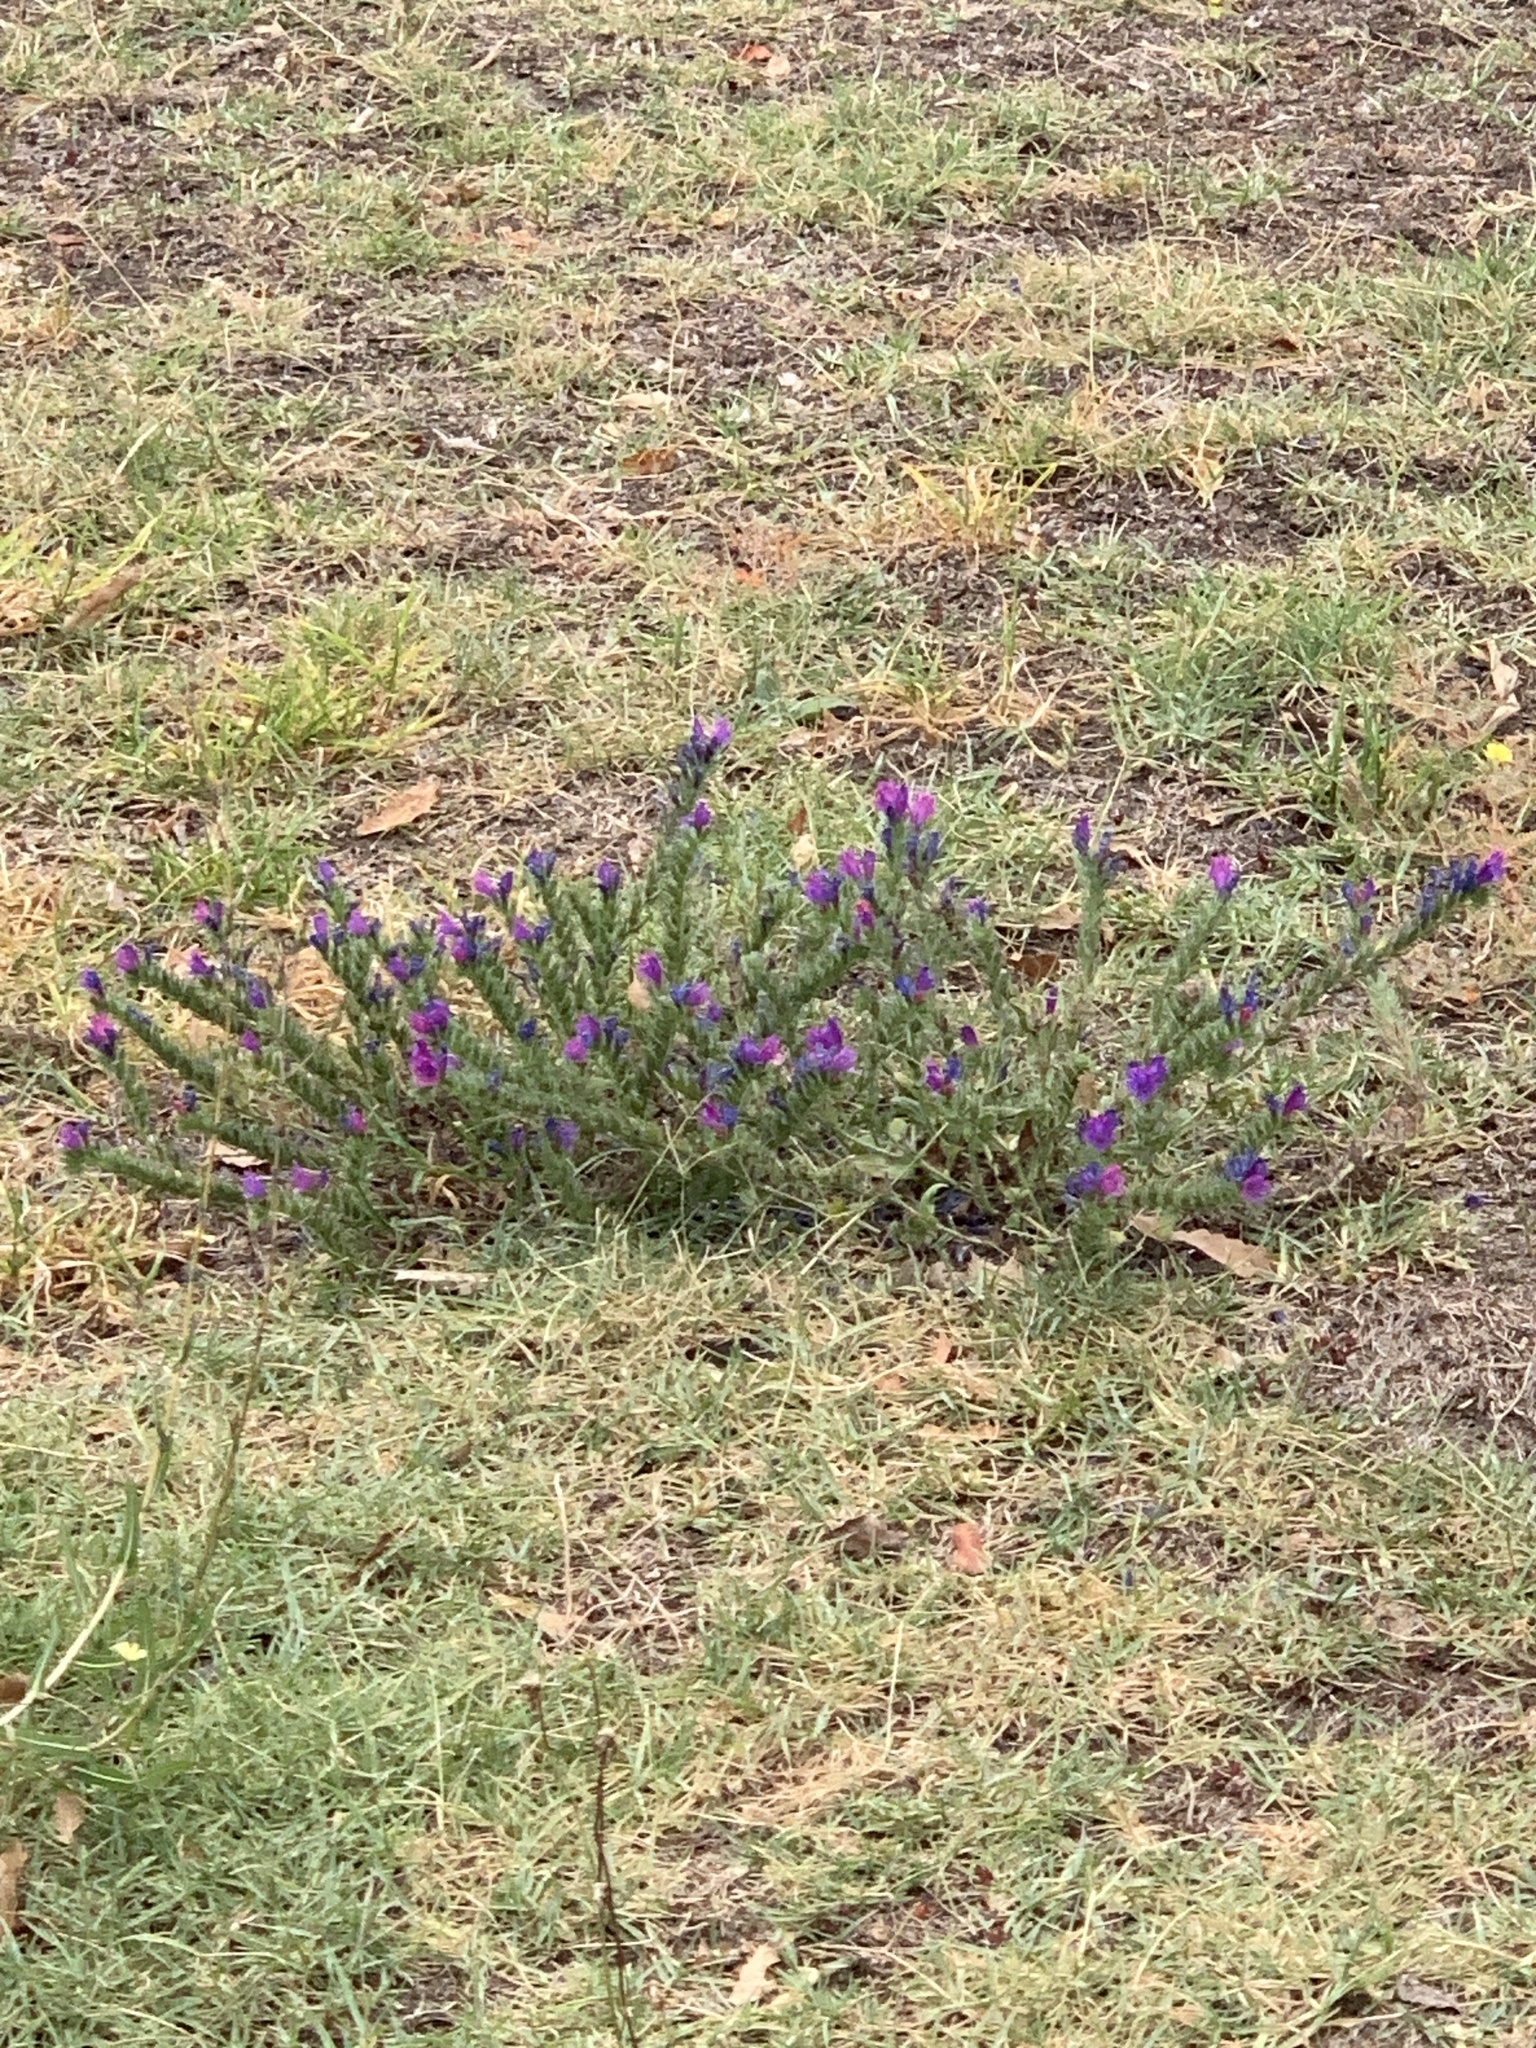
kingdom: Plantae
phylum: Tracheophyta
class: Magnoliopsida
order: Boraginales
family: Boraginaceae
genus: Echium
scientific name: Echium plantagineum
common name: Purple viper's-bugloss
